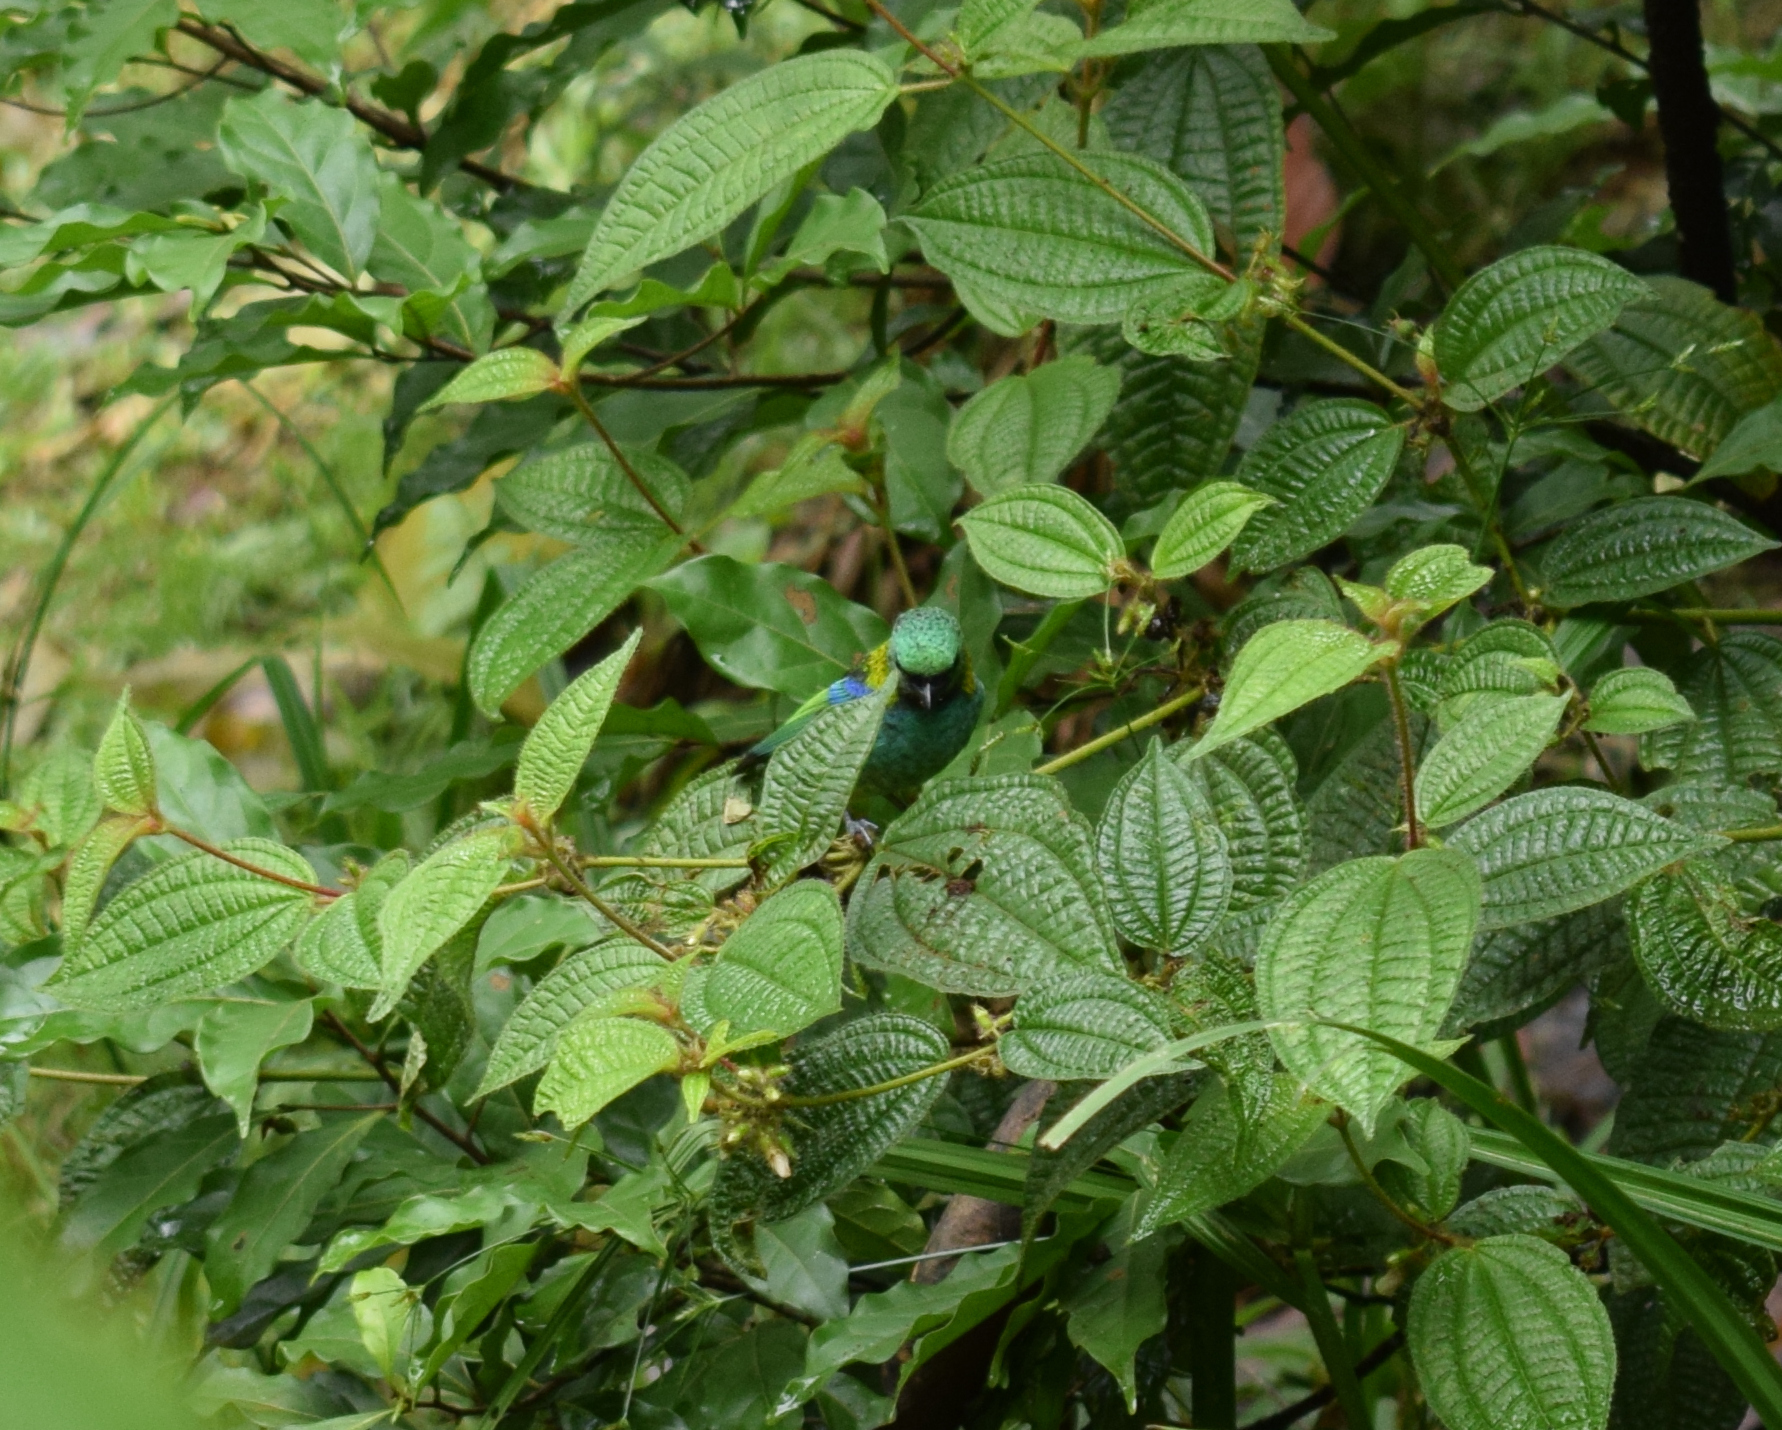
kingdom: Animalia
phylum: Chordata
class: Aves
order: Passeriformes
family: Thraupidae
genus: Tangara
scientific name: Tangara seledon
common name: Green-headed tanager
